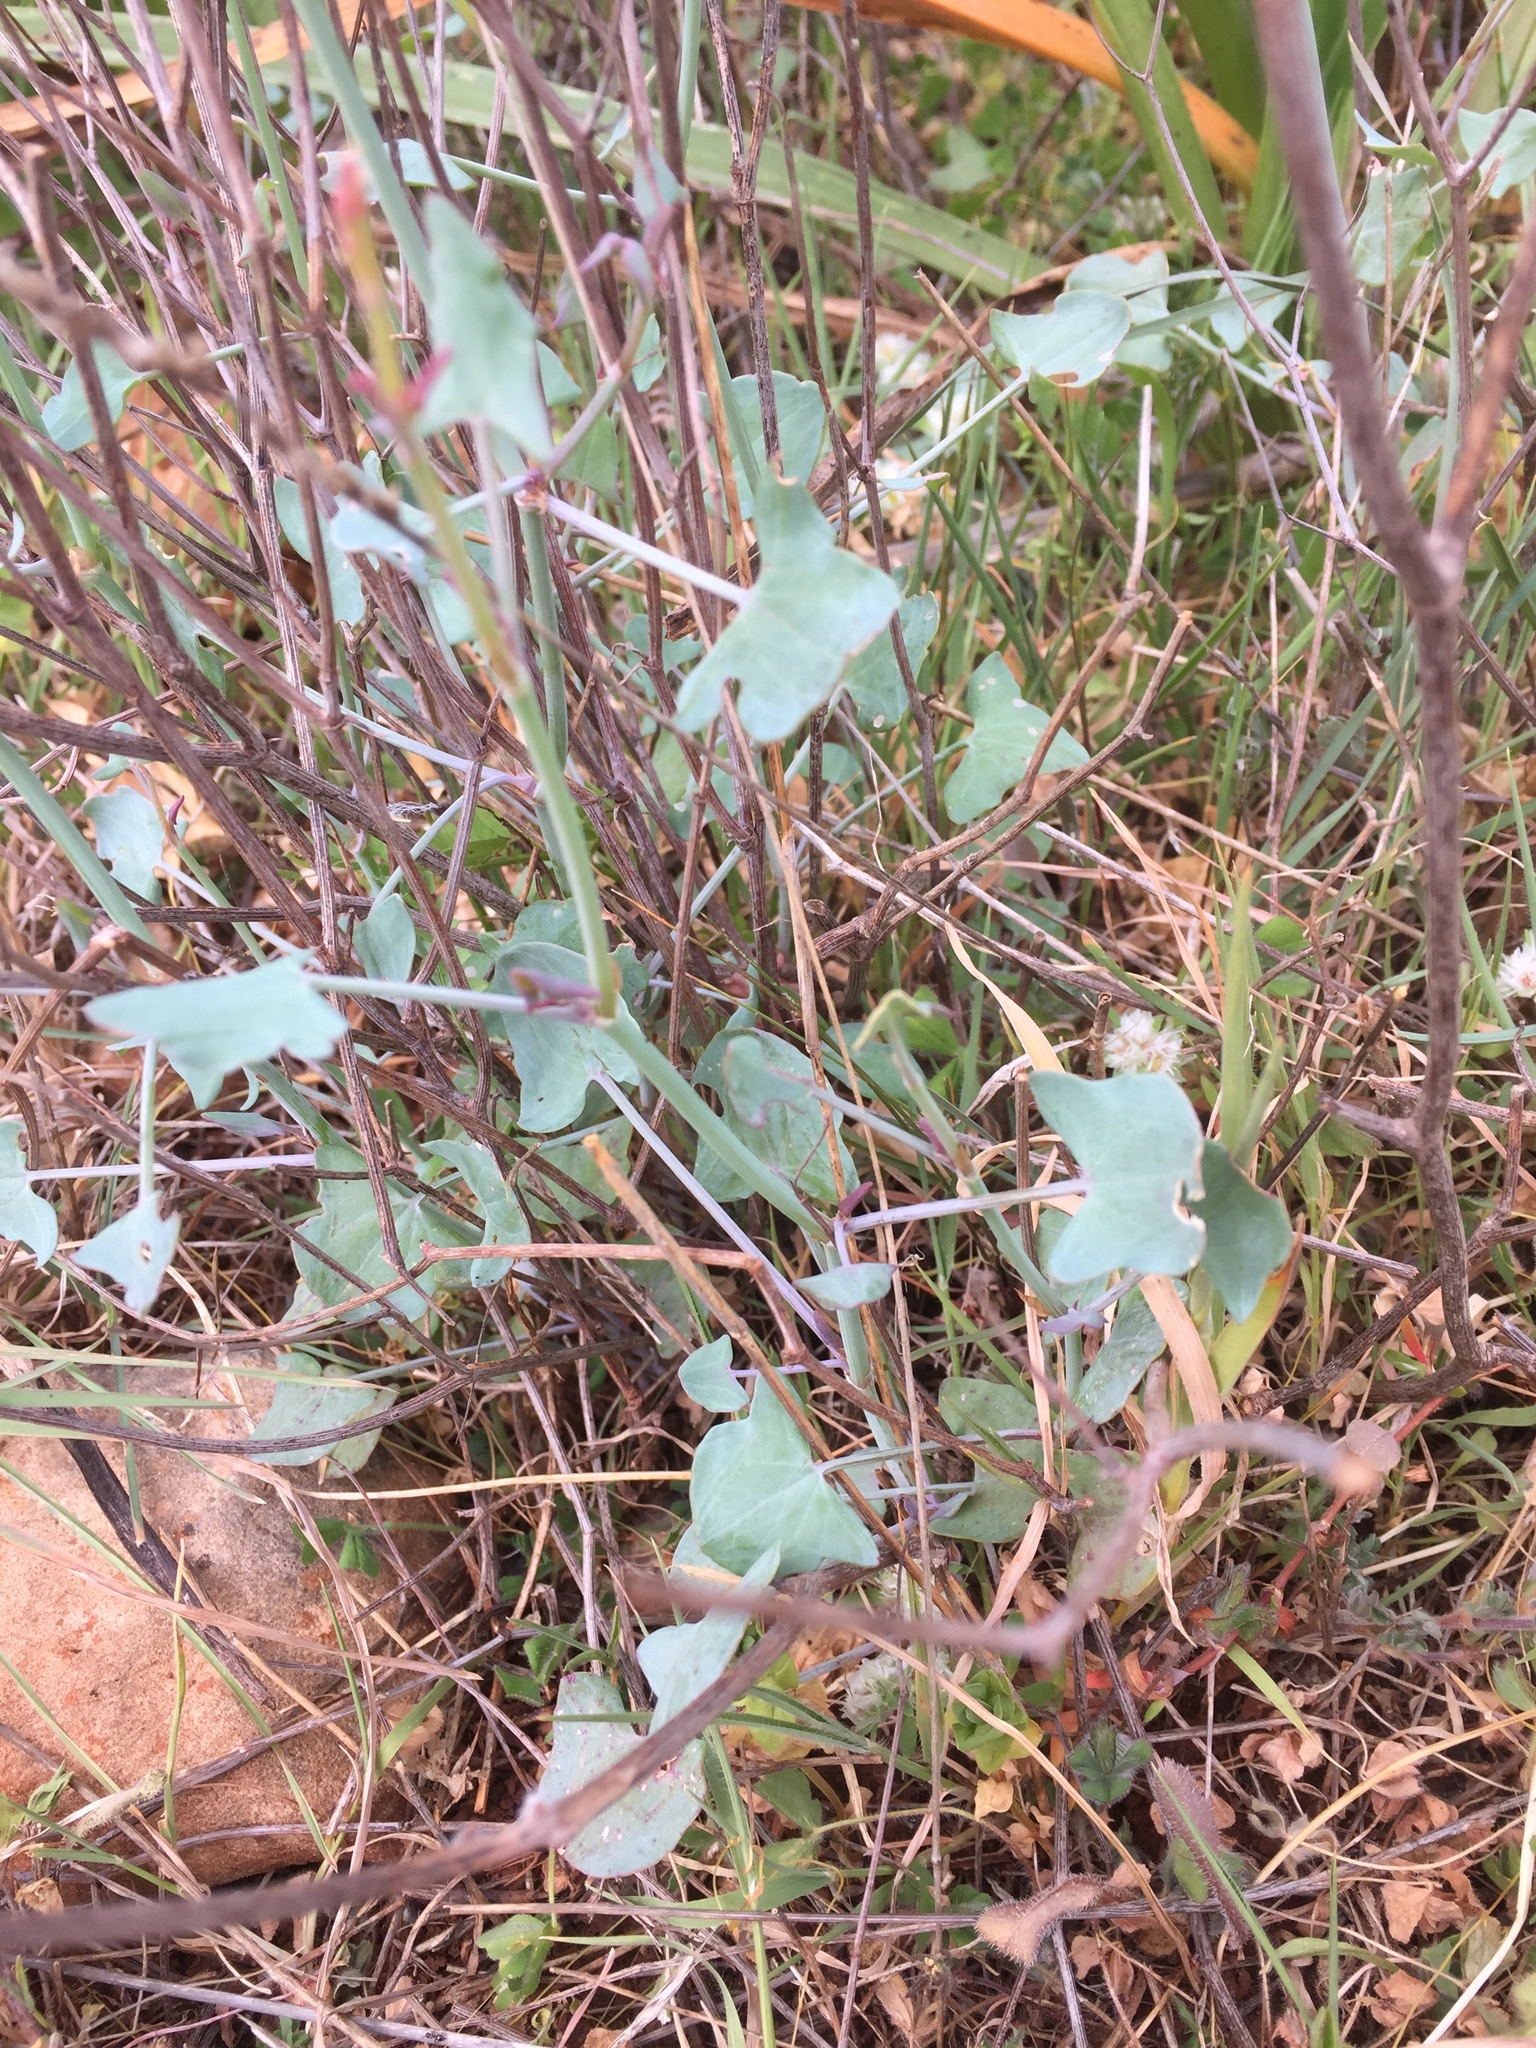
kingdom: Plantae
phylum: Tracheophyta
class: Magnoliopsida
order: Caryophyllales
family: Polygonaceae
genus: Rumex
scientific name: Rumex induratus
